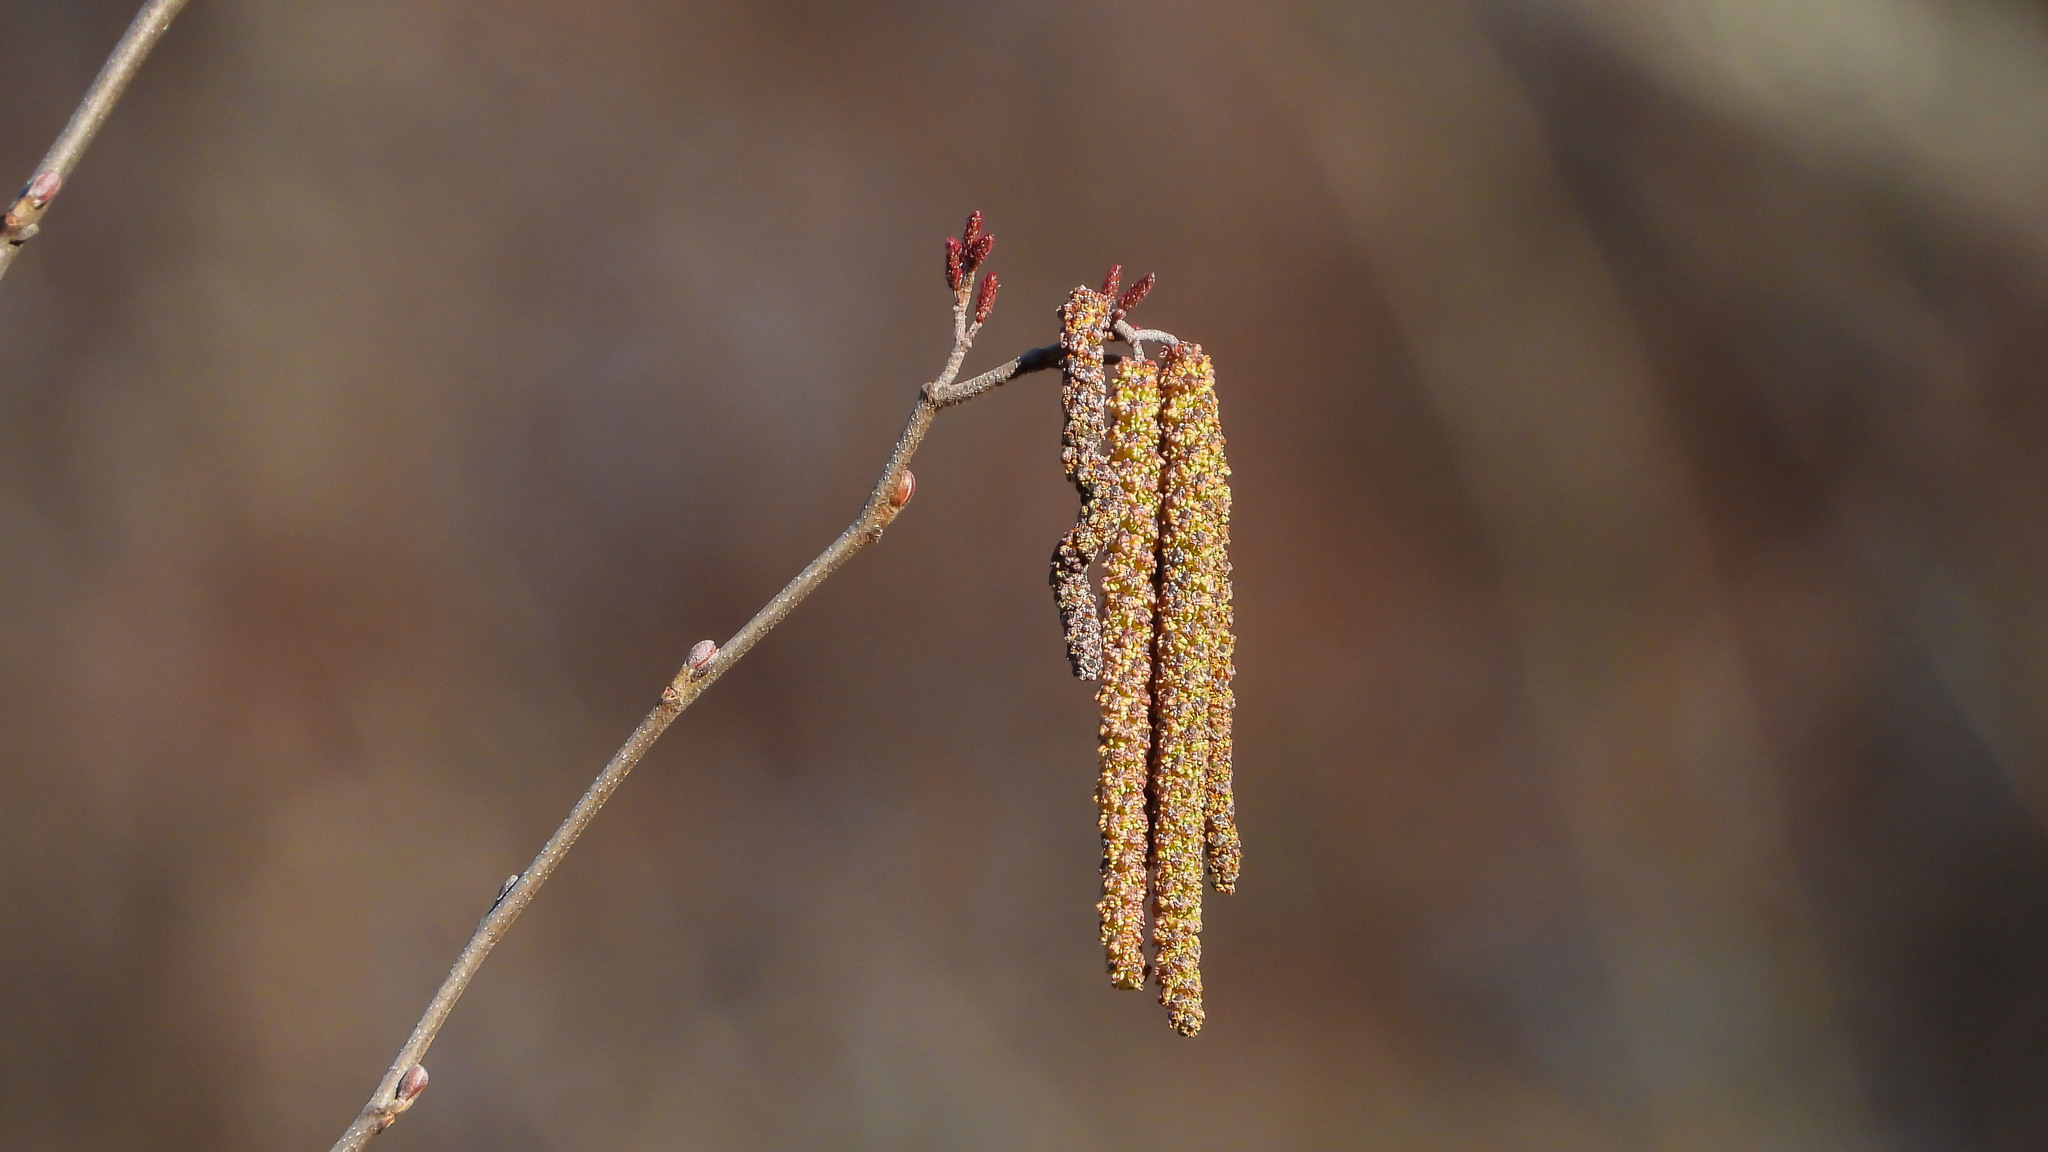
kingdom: Plantae
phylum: Tracheophyta
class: Magnoliopsida
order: Fagales
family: Betulaceae
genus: Alnus
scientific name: Alnus serrulata
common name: Hazel alder
